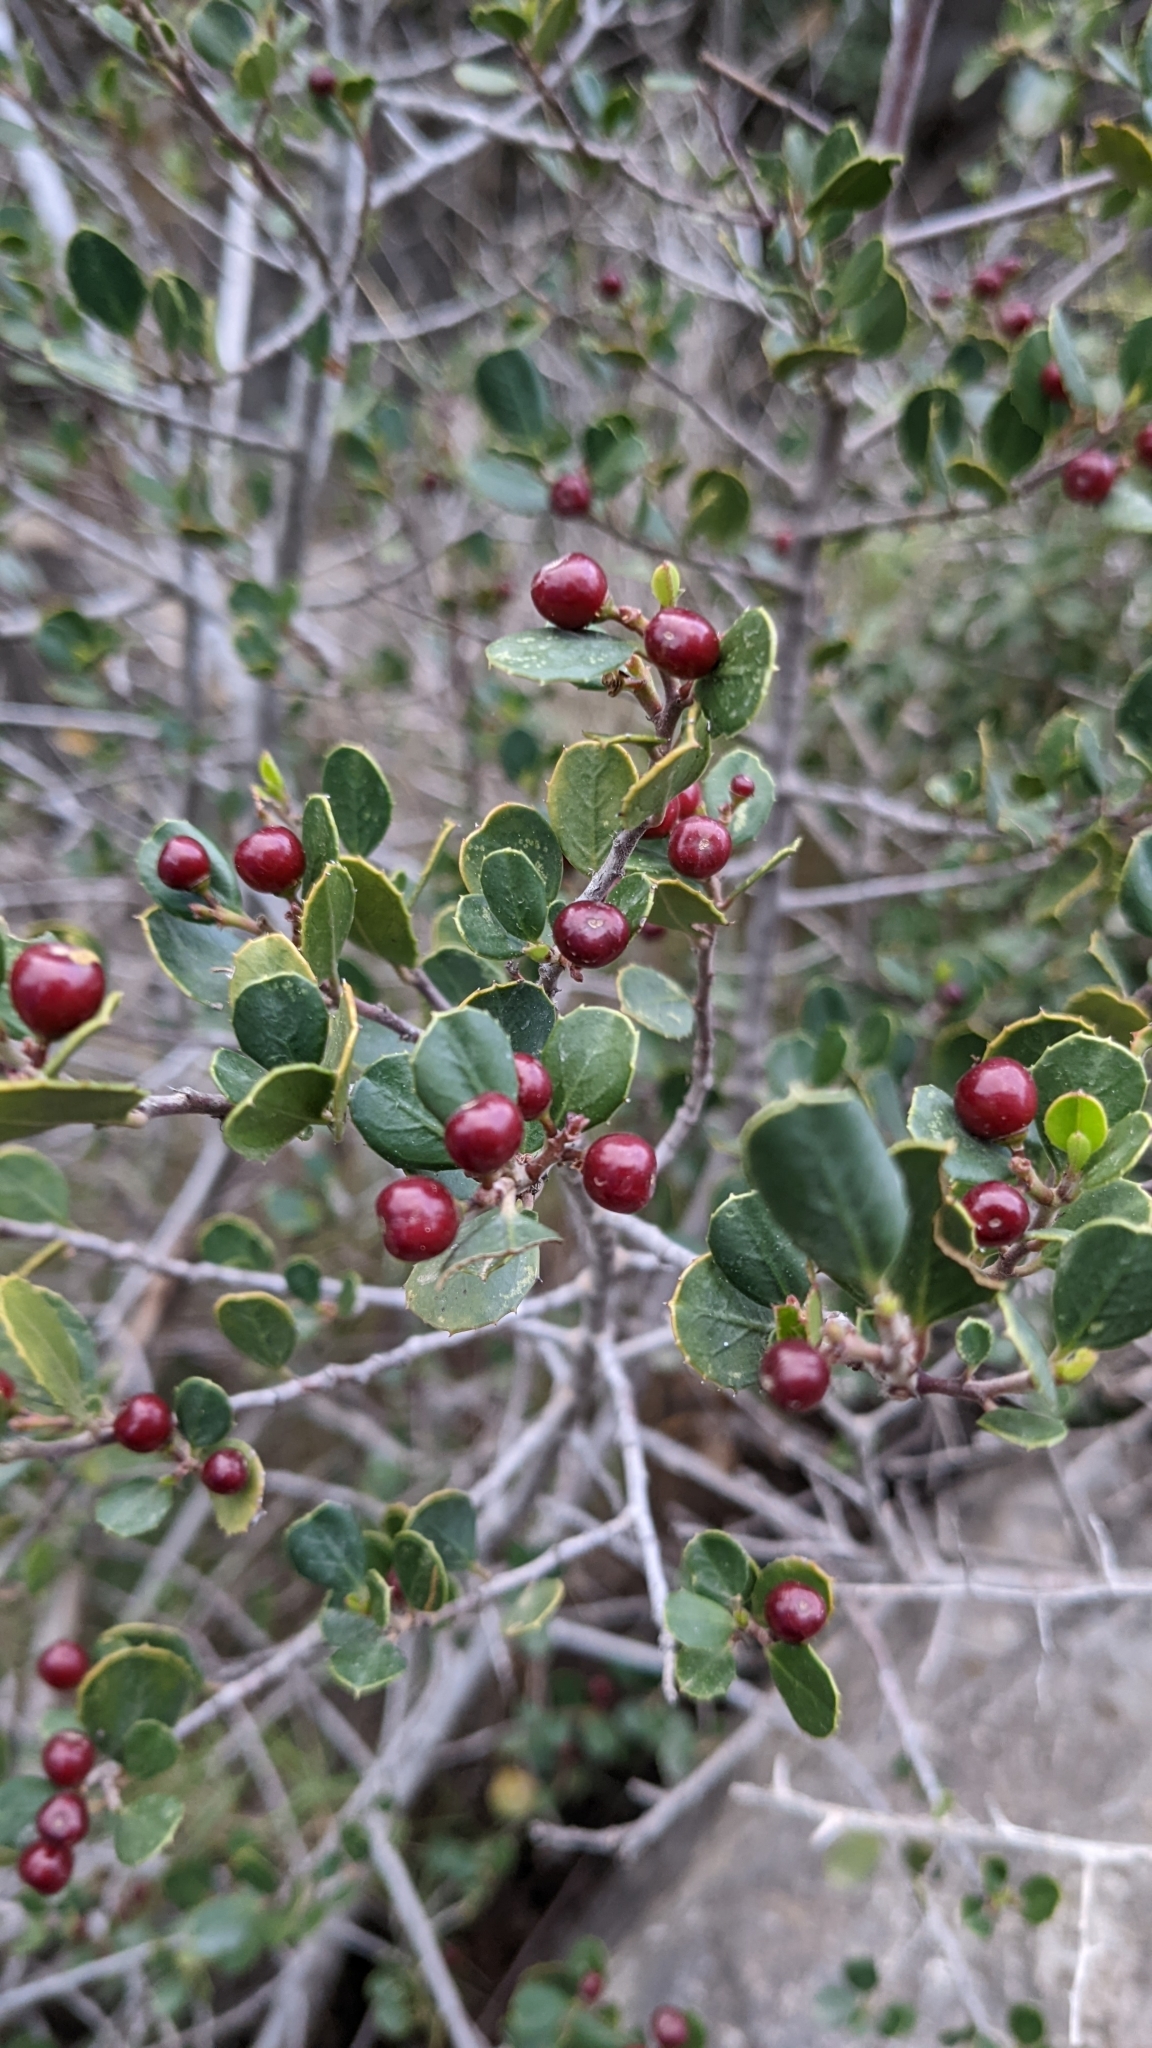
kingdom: Plantae
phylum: Tracheophyta
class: Magnoliopsida
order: Rosales
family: Rhamnaceae
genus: Rhamnus
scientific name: Rhamnus alaternus
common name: Mediterranean buckthorn
